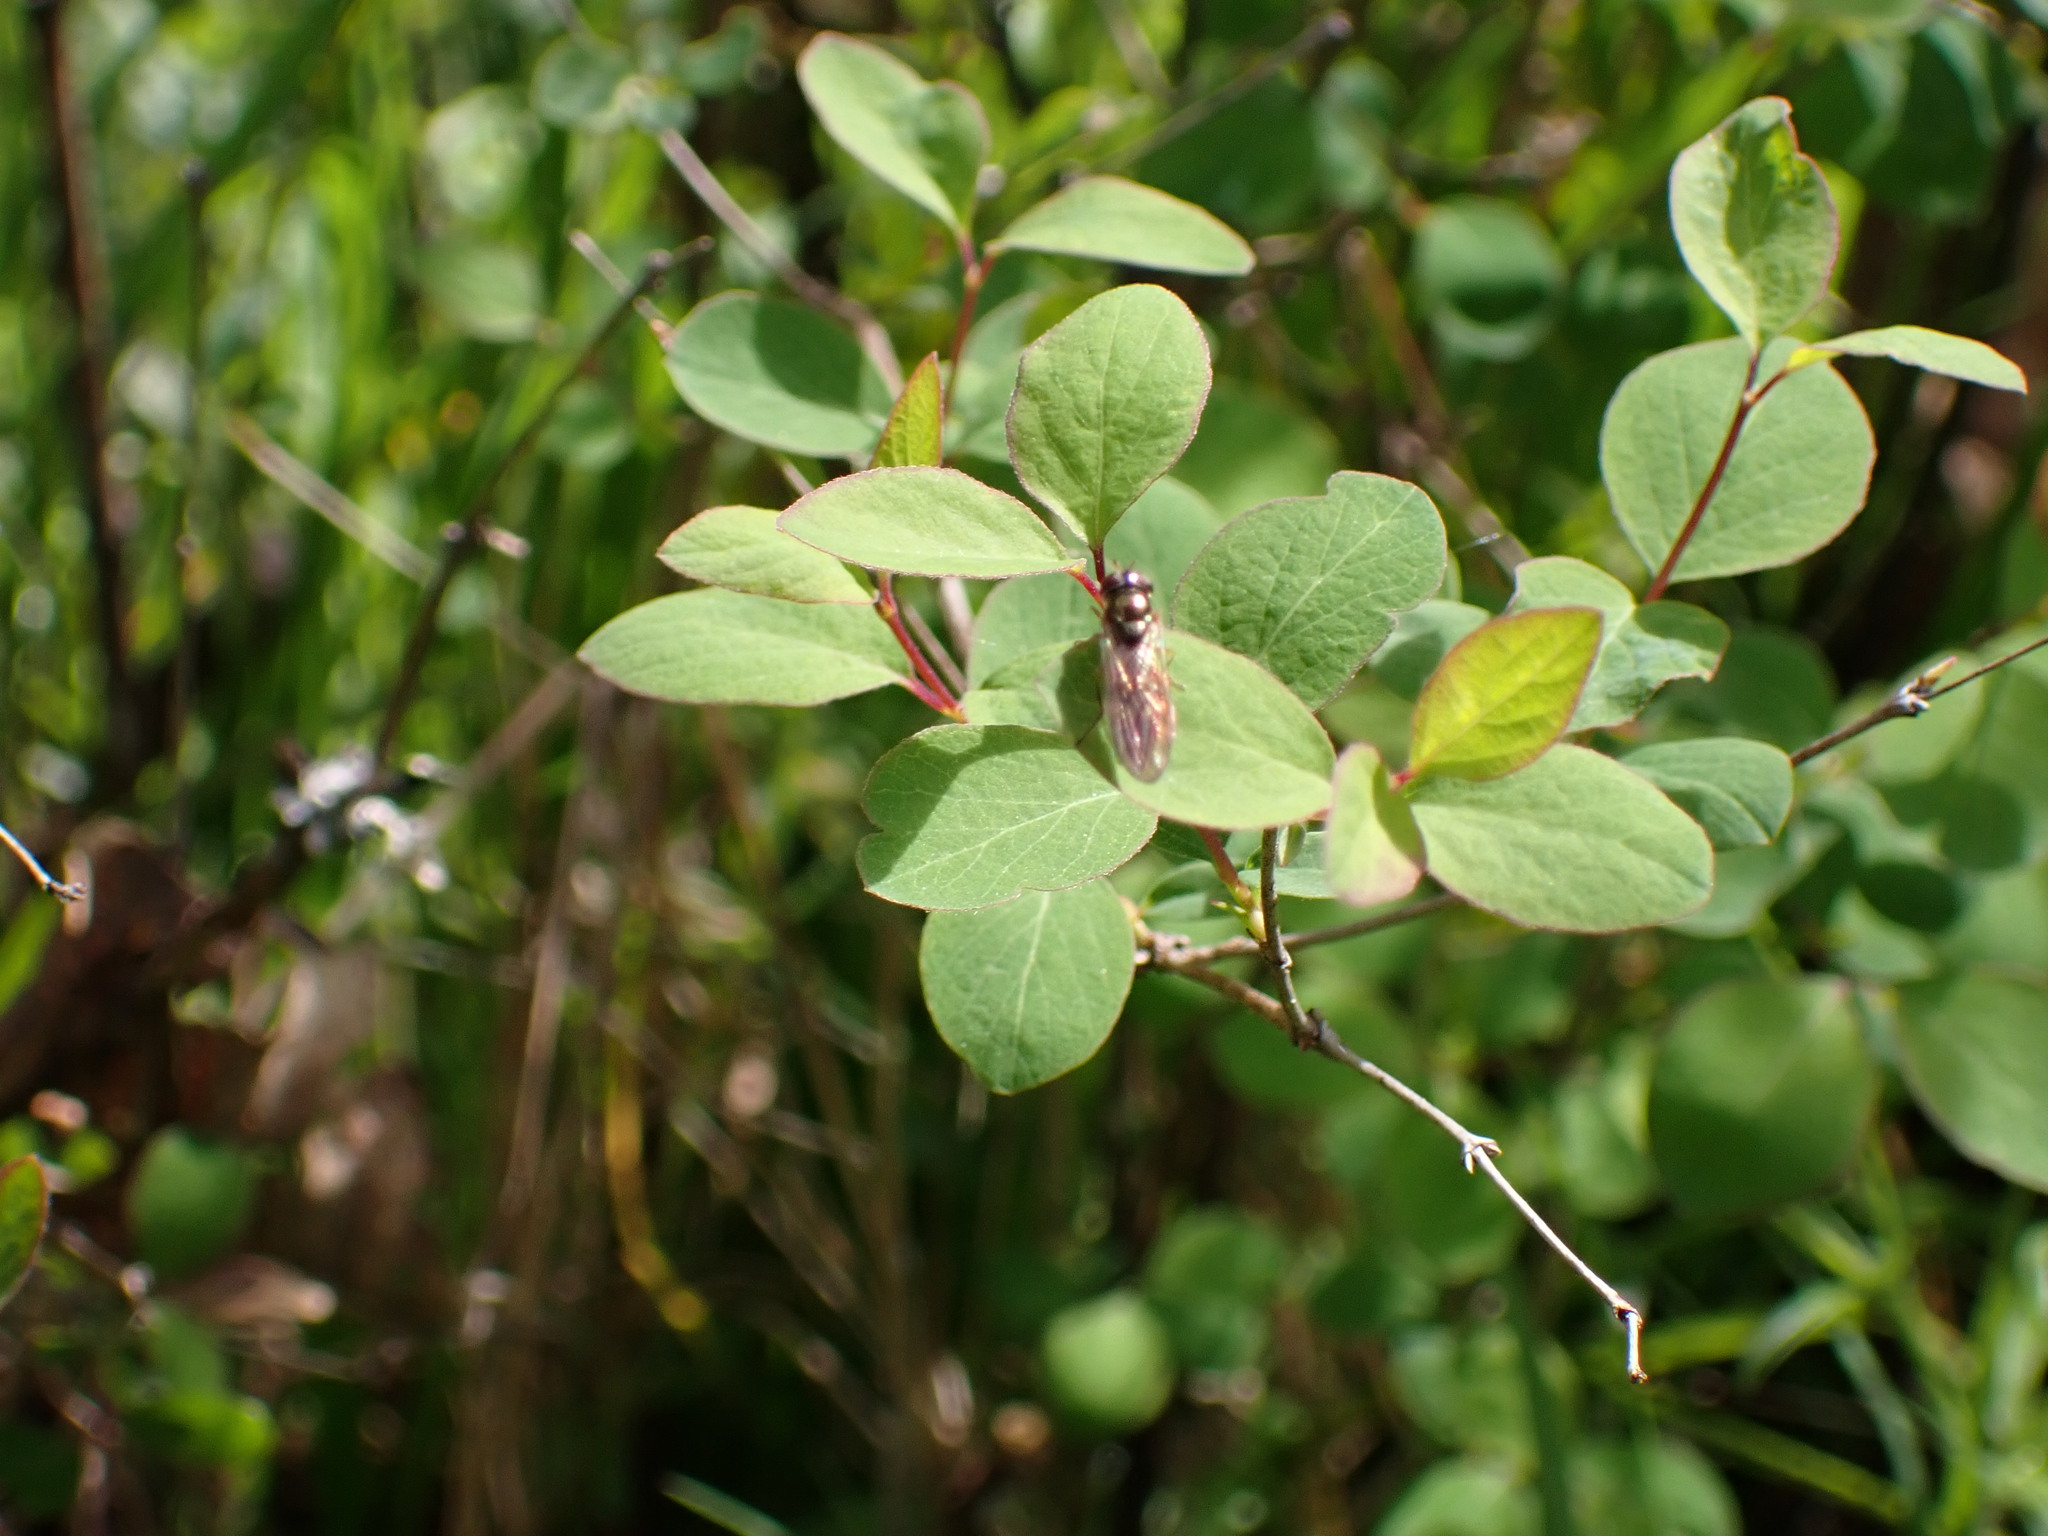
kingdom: Animalia
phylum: Arthropoda
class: Insecta
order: Diptera
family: Syrphidae
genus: Melanostoma
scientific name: Melanostoma mellina
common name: Hover fly
